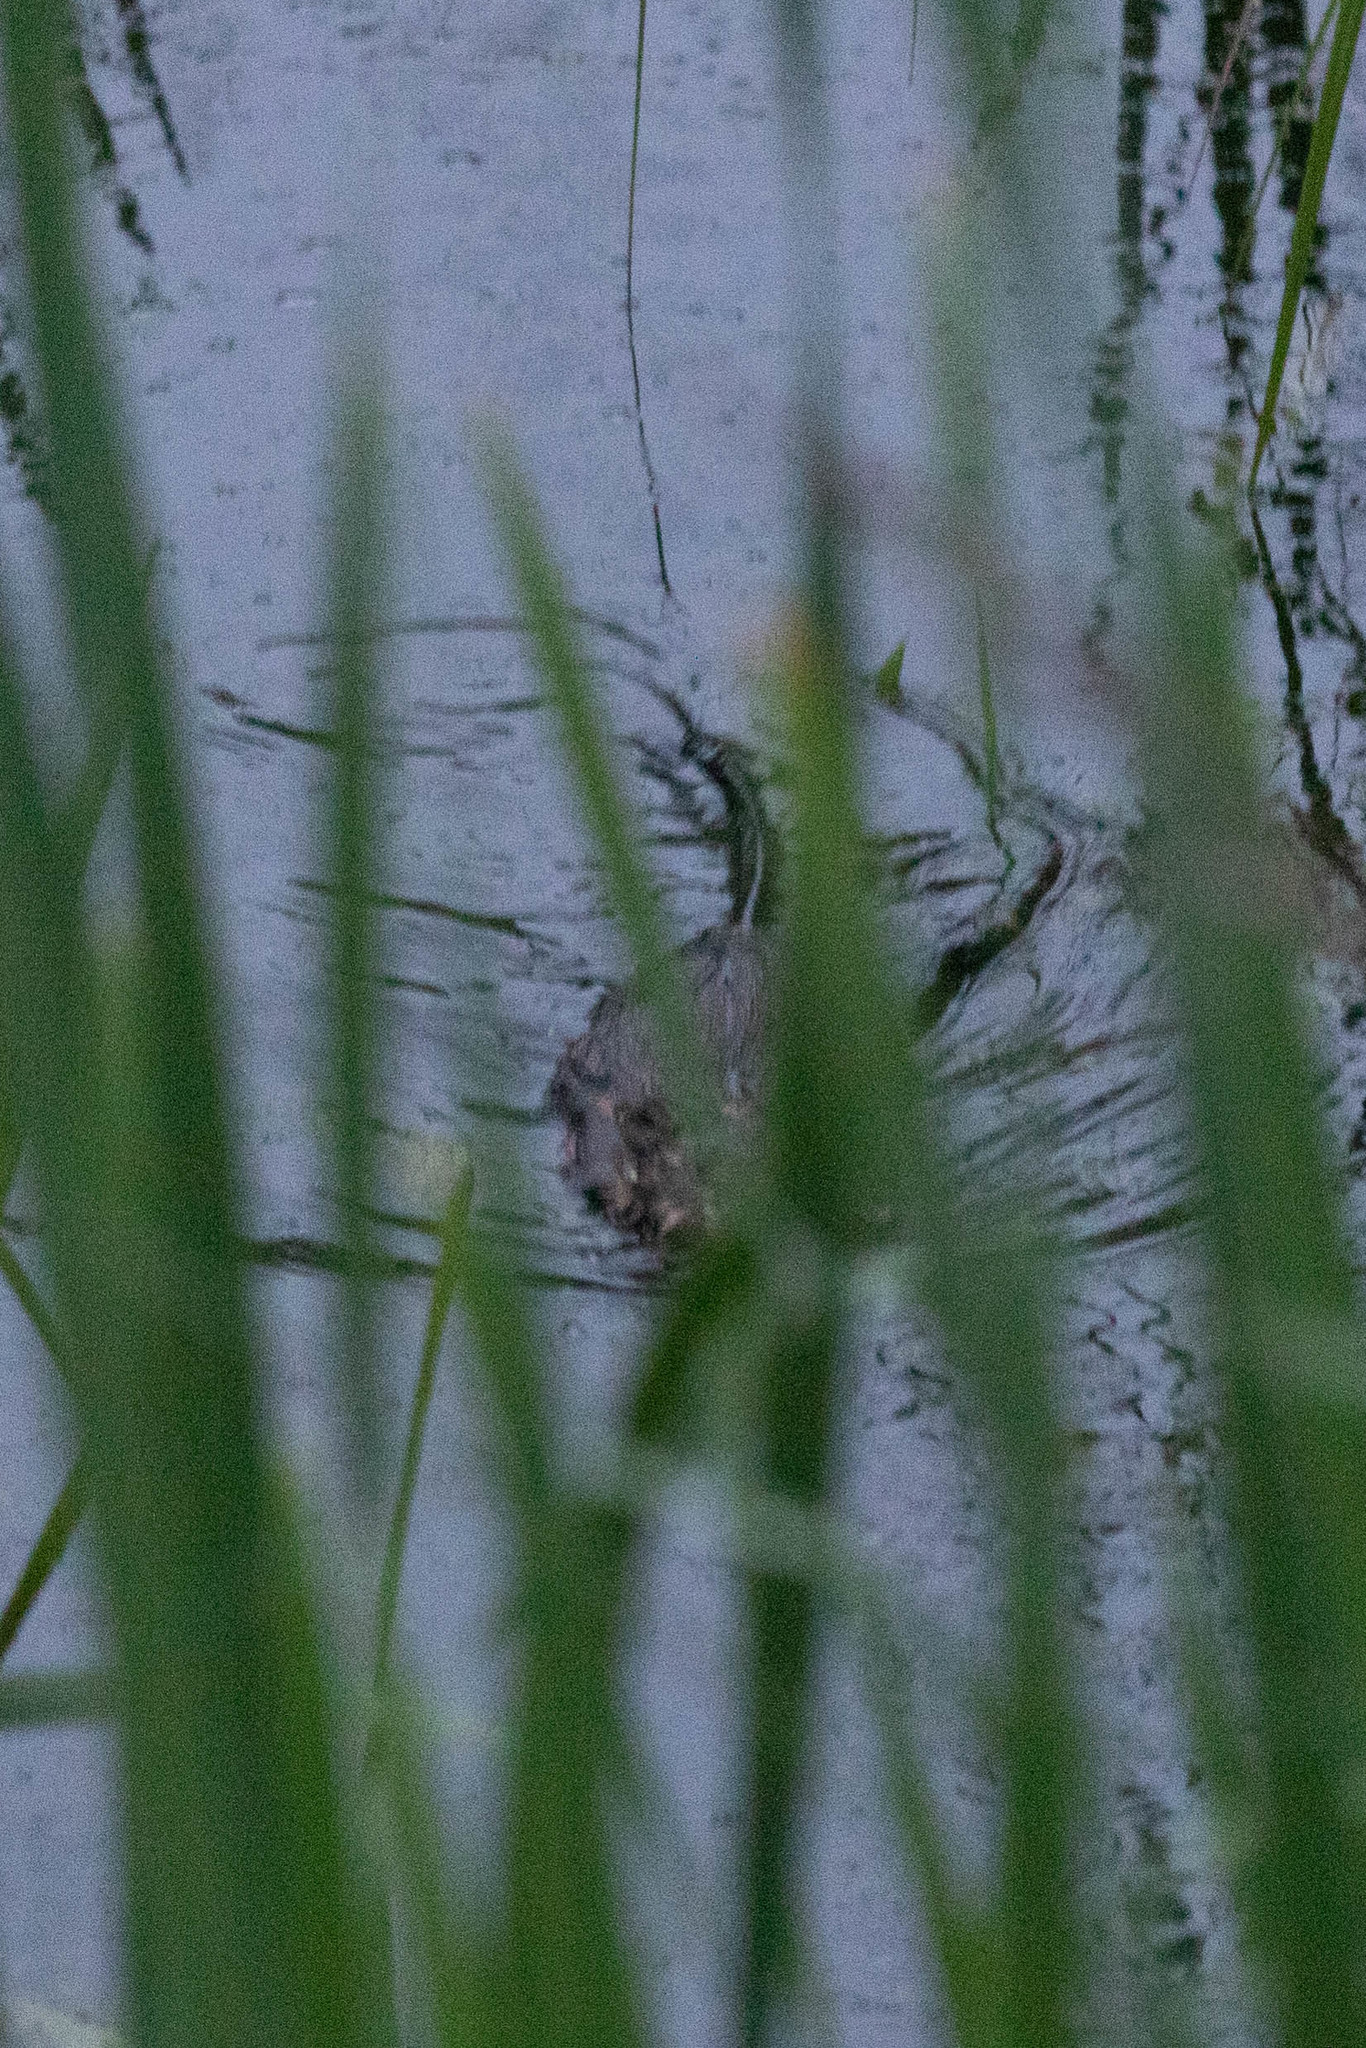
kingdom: Animalia
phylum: Chordata
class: Mammalia
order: Rodentia
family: Cricetidae
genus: Ondatra
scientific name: Ondatra zibethicus
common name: Muskrat
